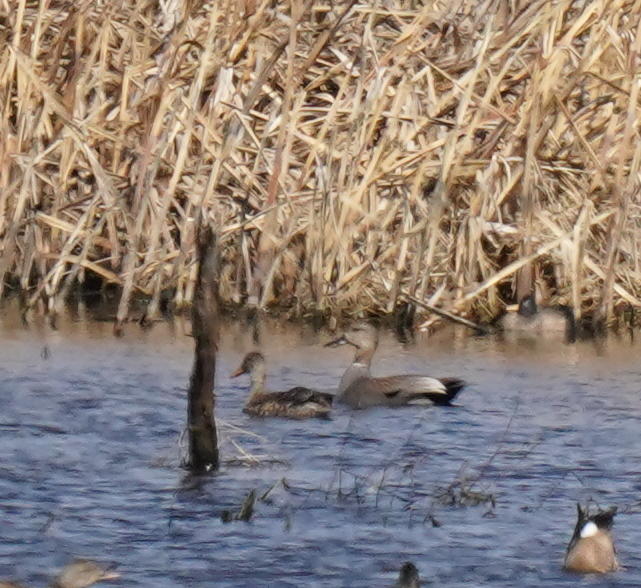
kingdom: Animalia
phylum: Chordata
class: Aves
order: Anseriformes
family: Anatidae
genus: Mareca
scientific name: Mareca strepera
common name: Gadwall
